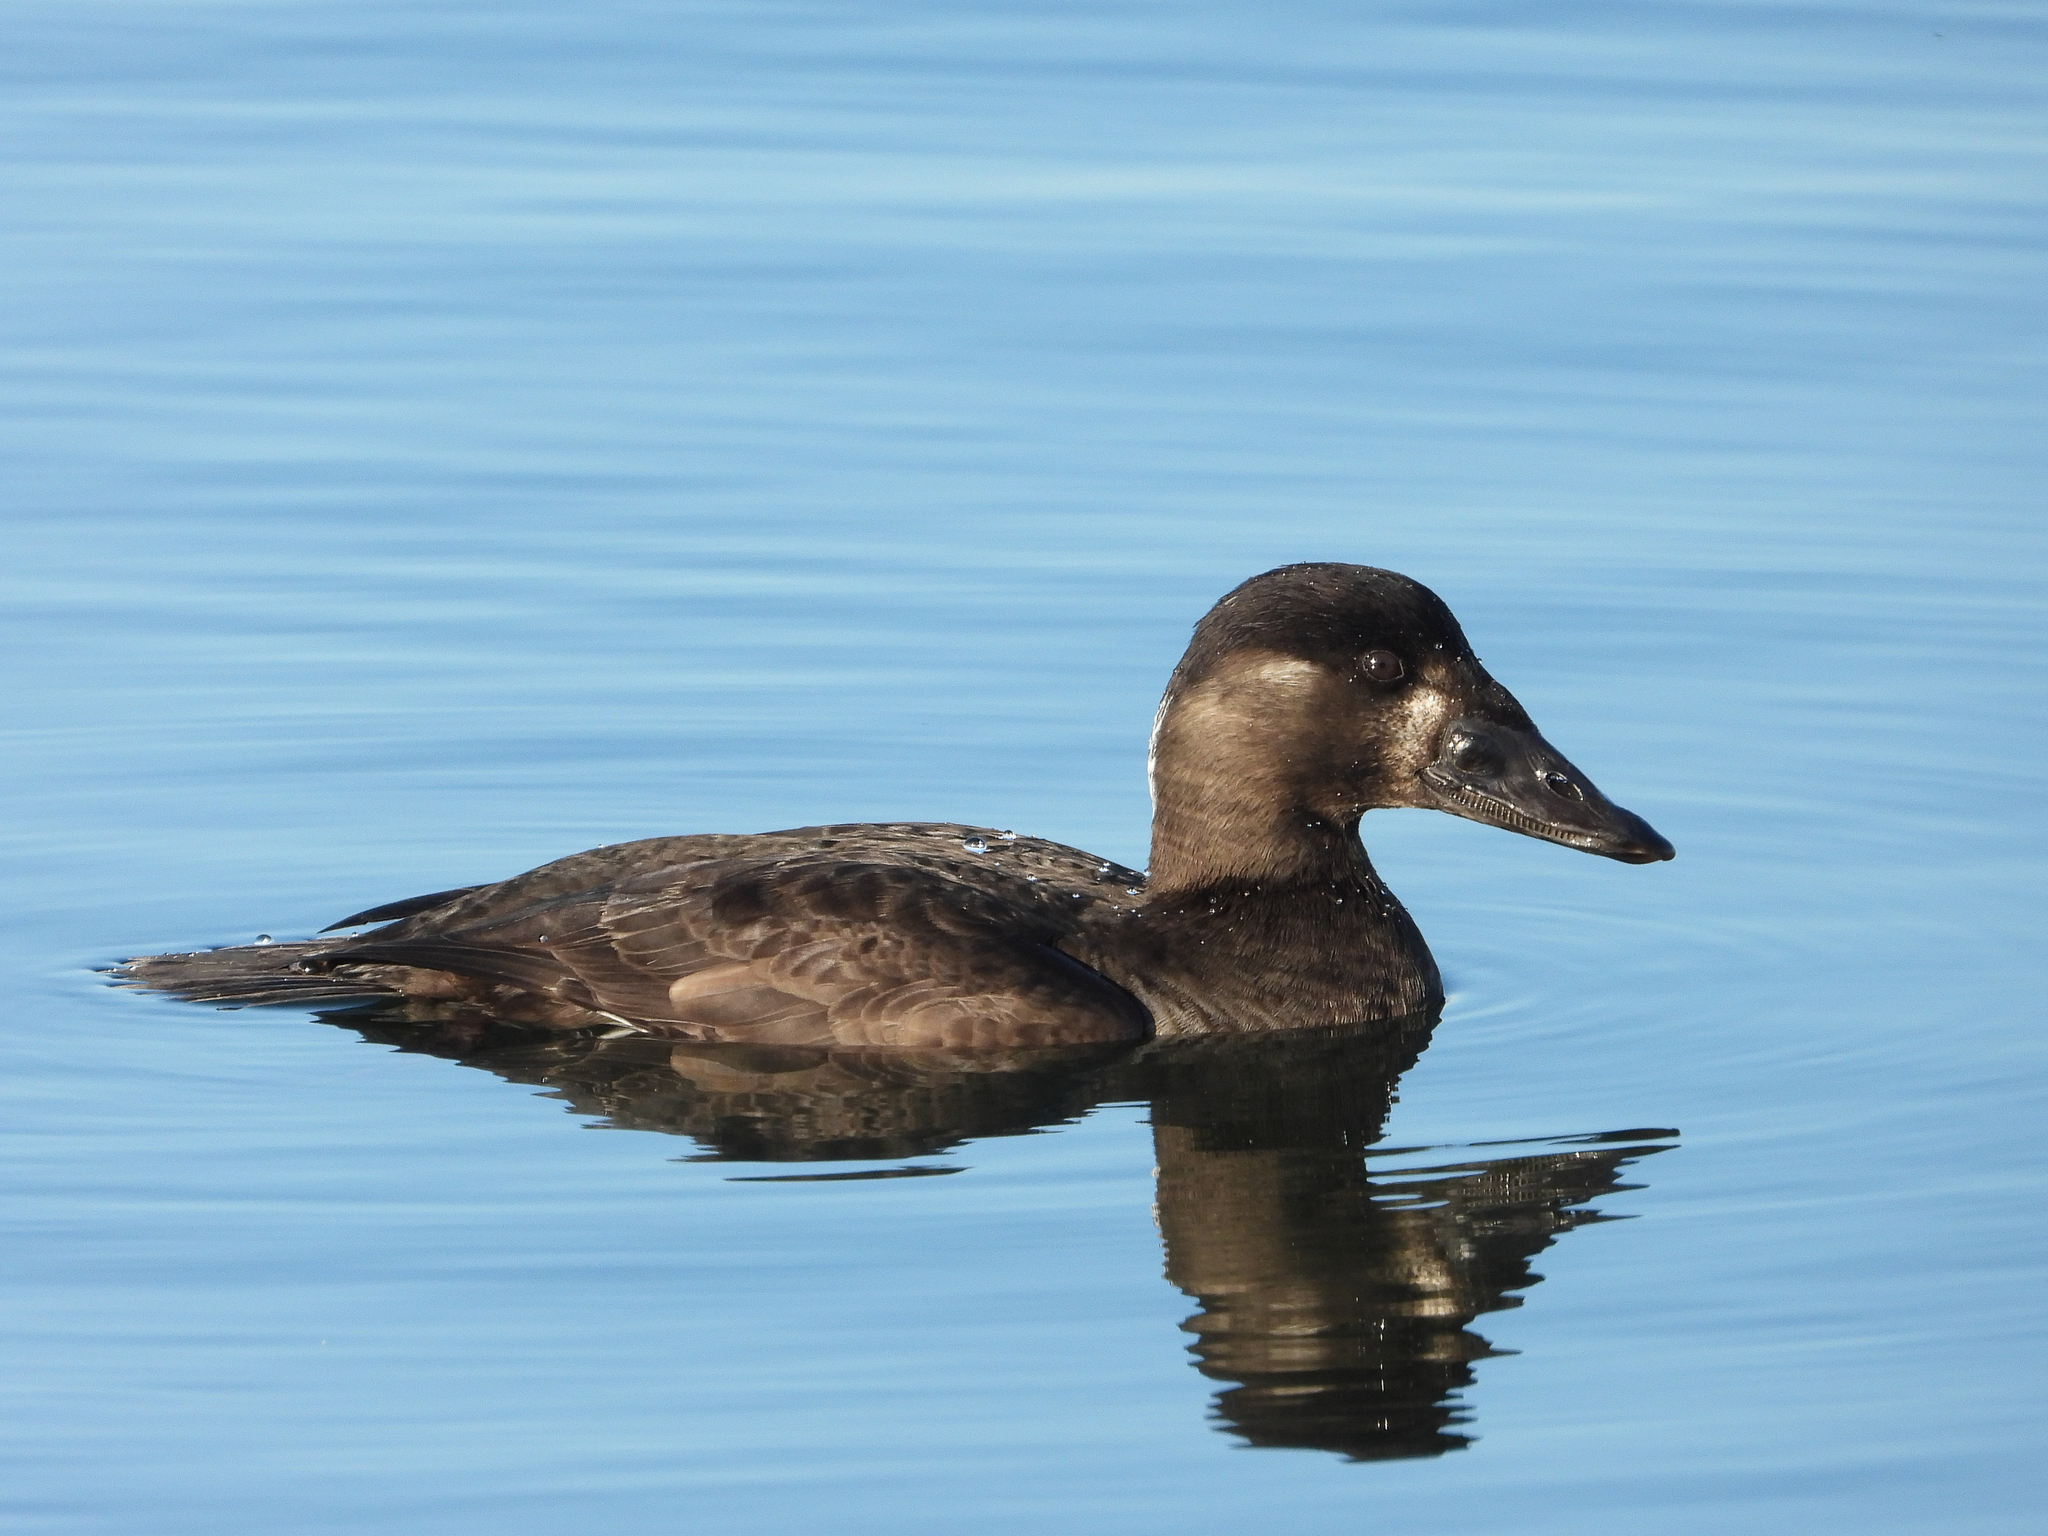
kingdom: Animalia
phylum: Chordata
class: Aves
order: Anseriformes
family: Anatidae
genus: Melanitta
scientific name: Melanitta perspicillata
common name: Surf scoter
